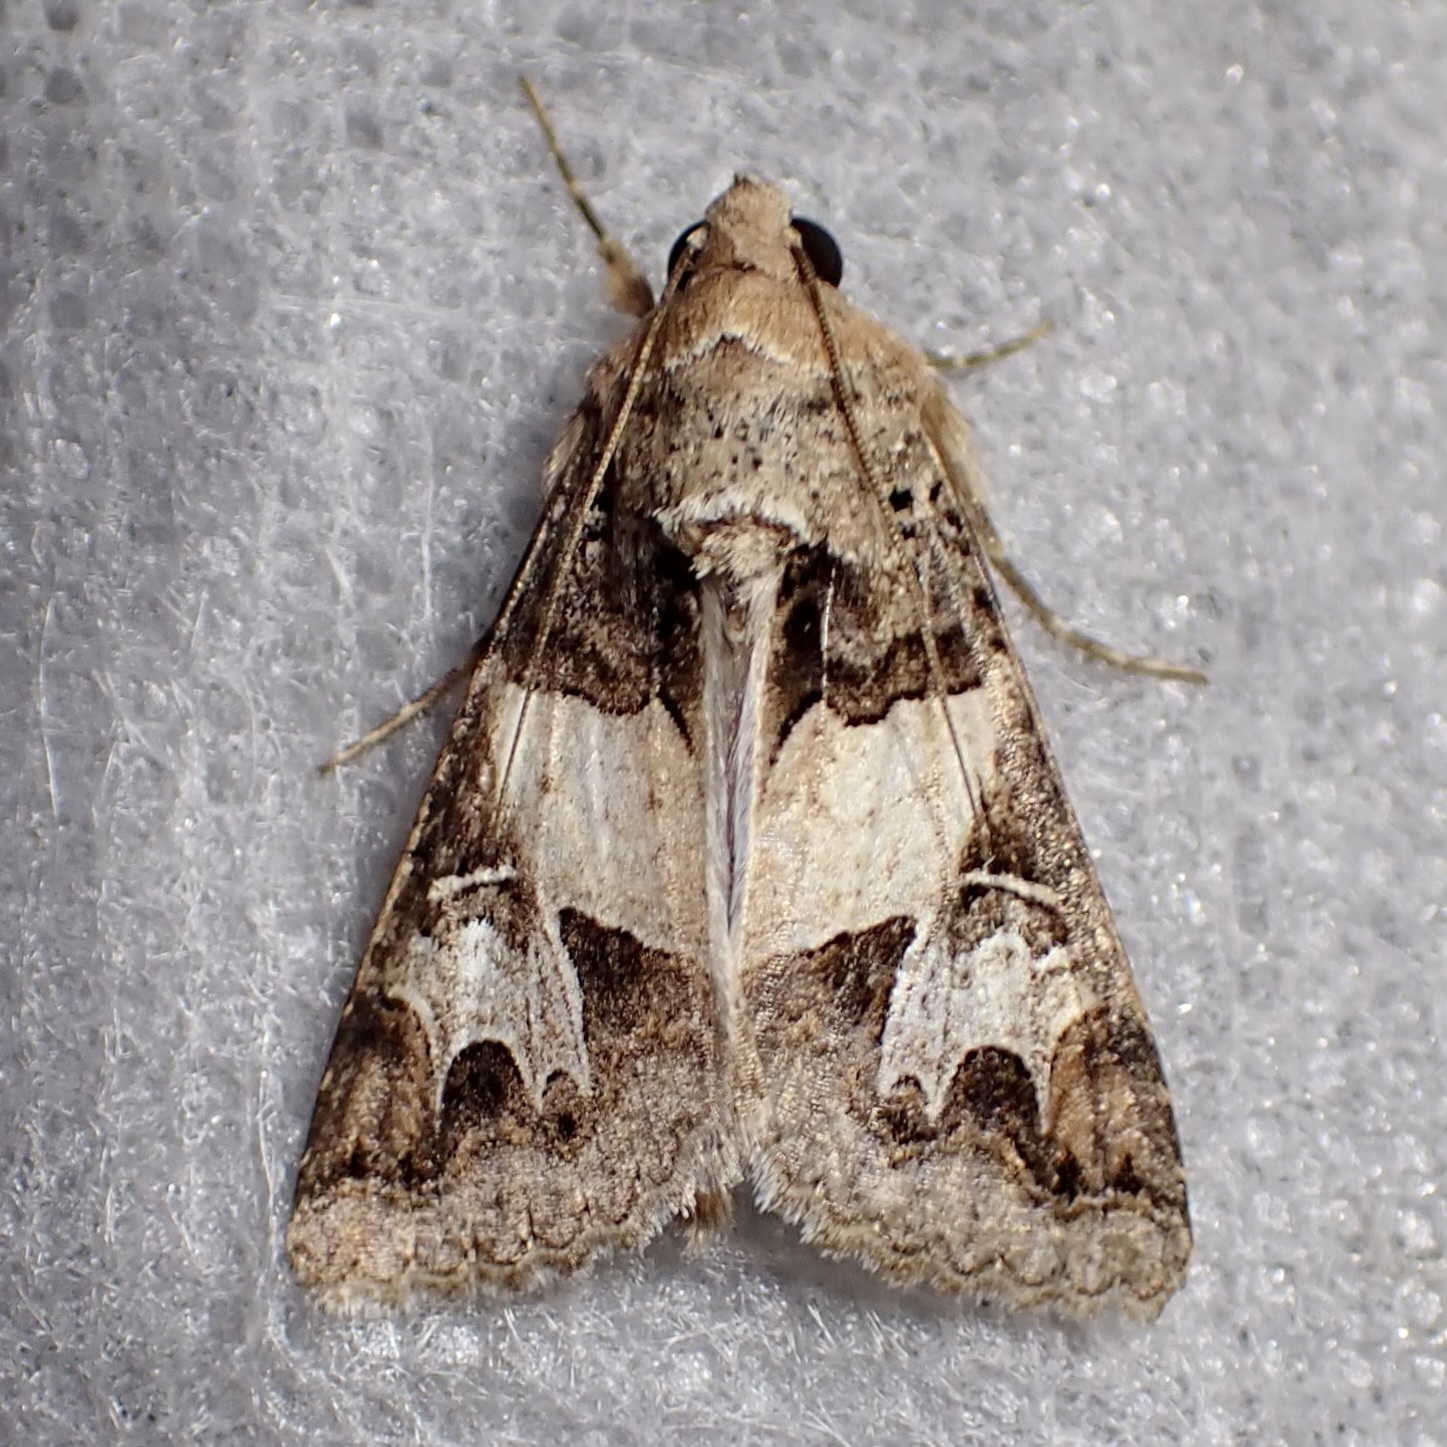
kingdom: Animalia
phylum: Arthropoda
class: Insecta
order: Lepidoptera
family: Erebidae
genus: Melipotis
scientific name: Melipotis novanda
